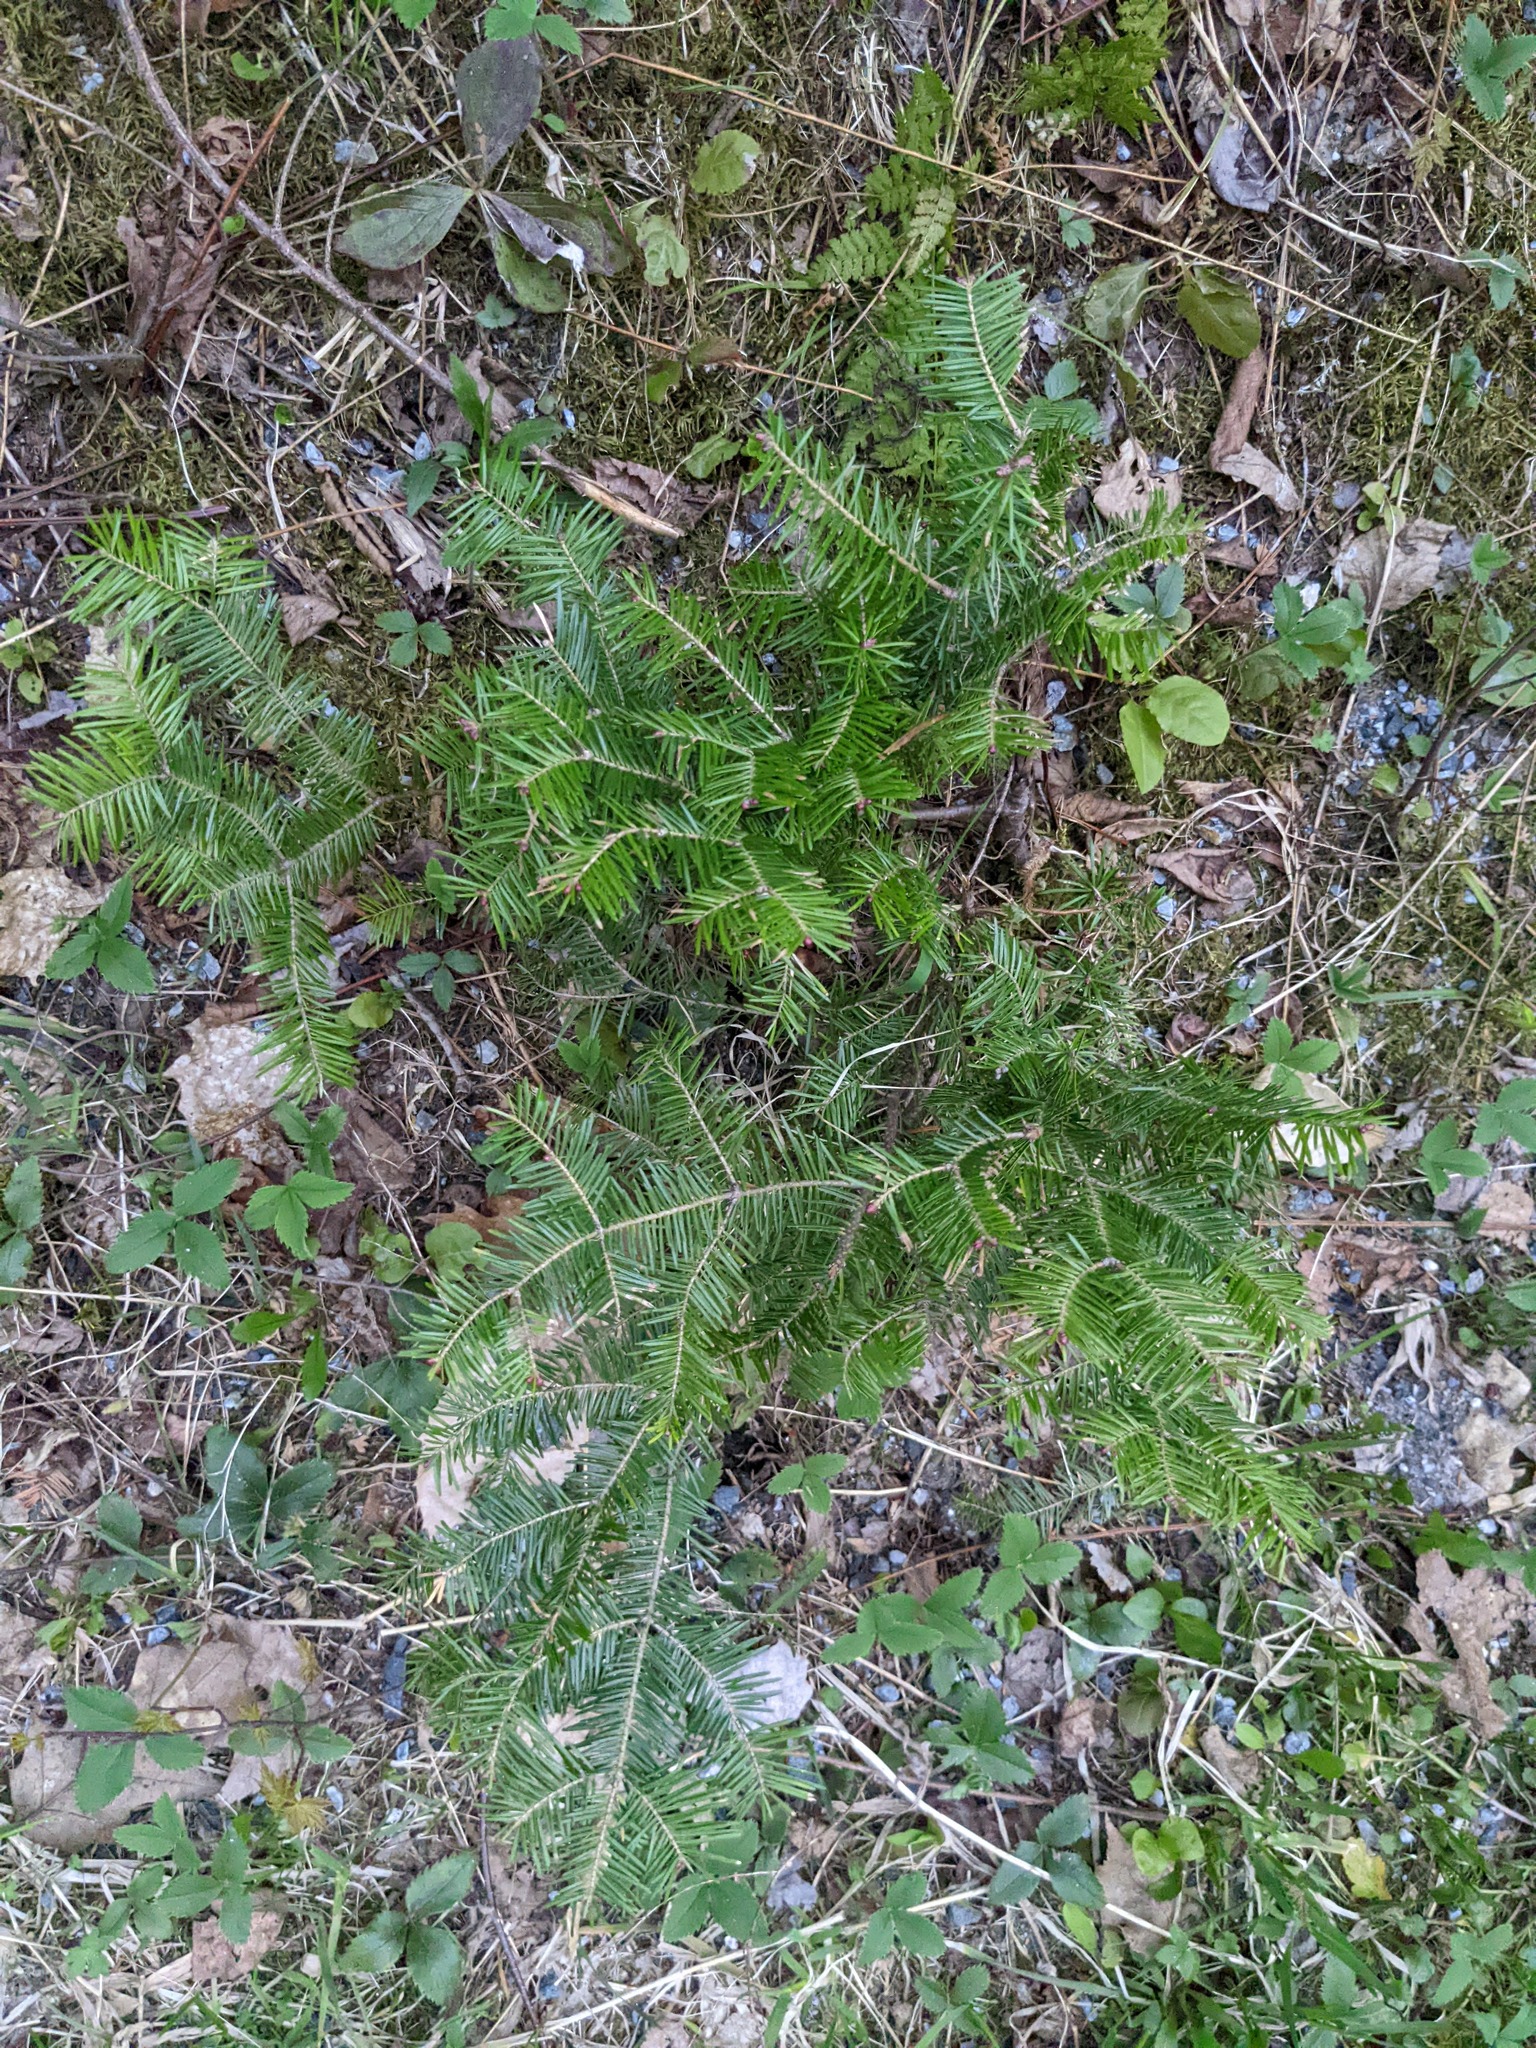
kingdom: Plantae
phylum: Tracheophyta
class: Pinopsida
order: Pinales
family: Pinaceae
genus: Abies
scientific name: Abies balsamea
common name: Balsam fir
